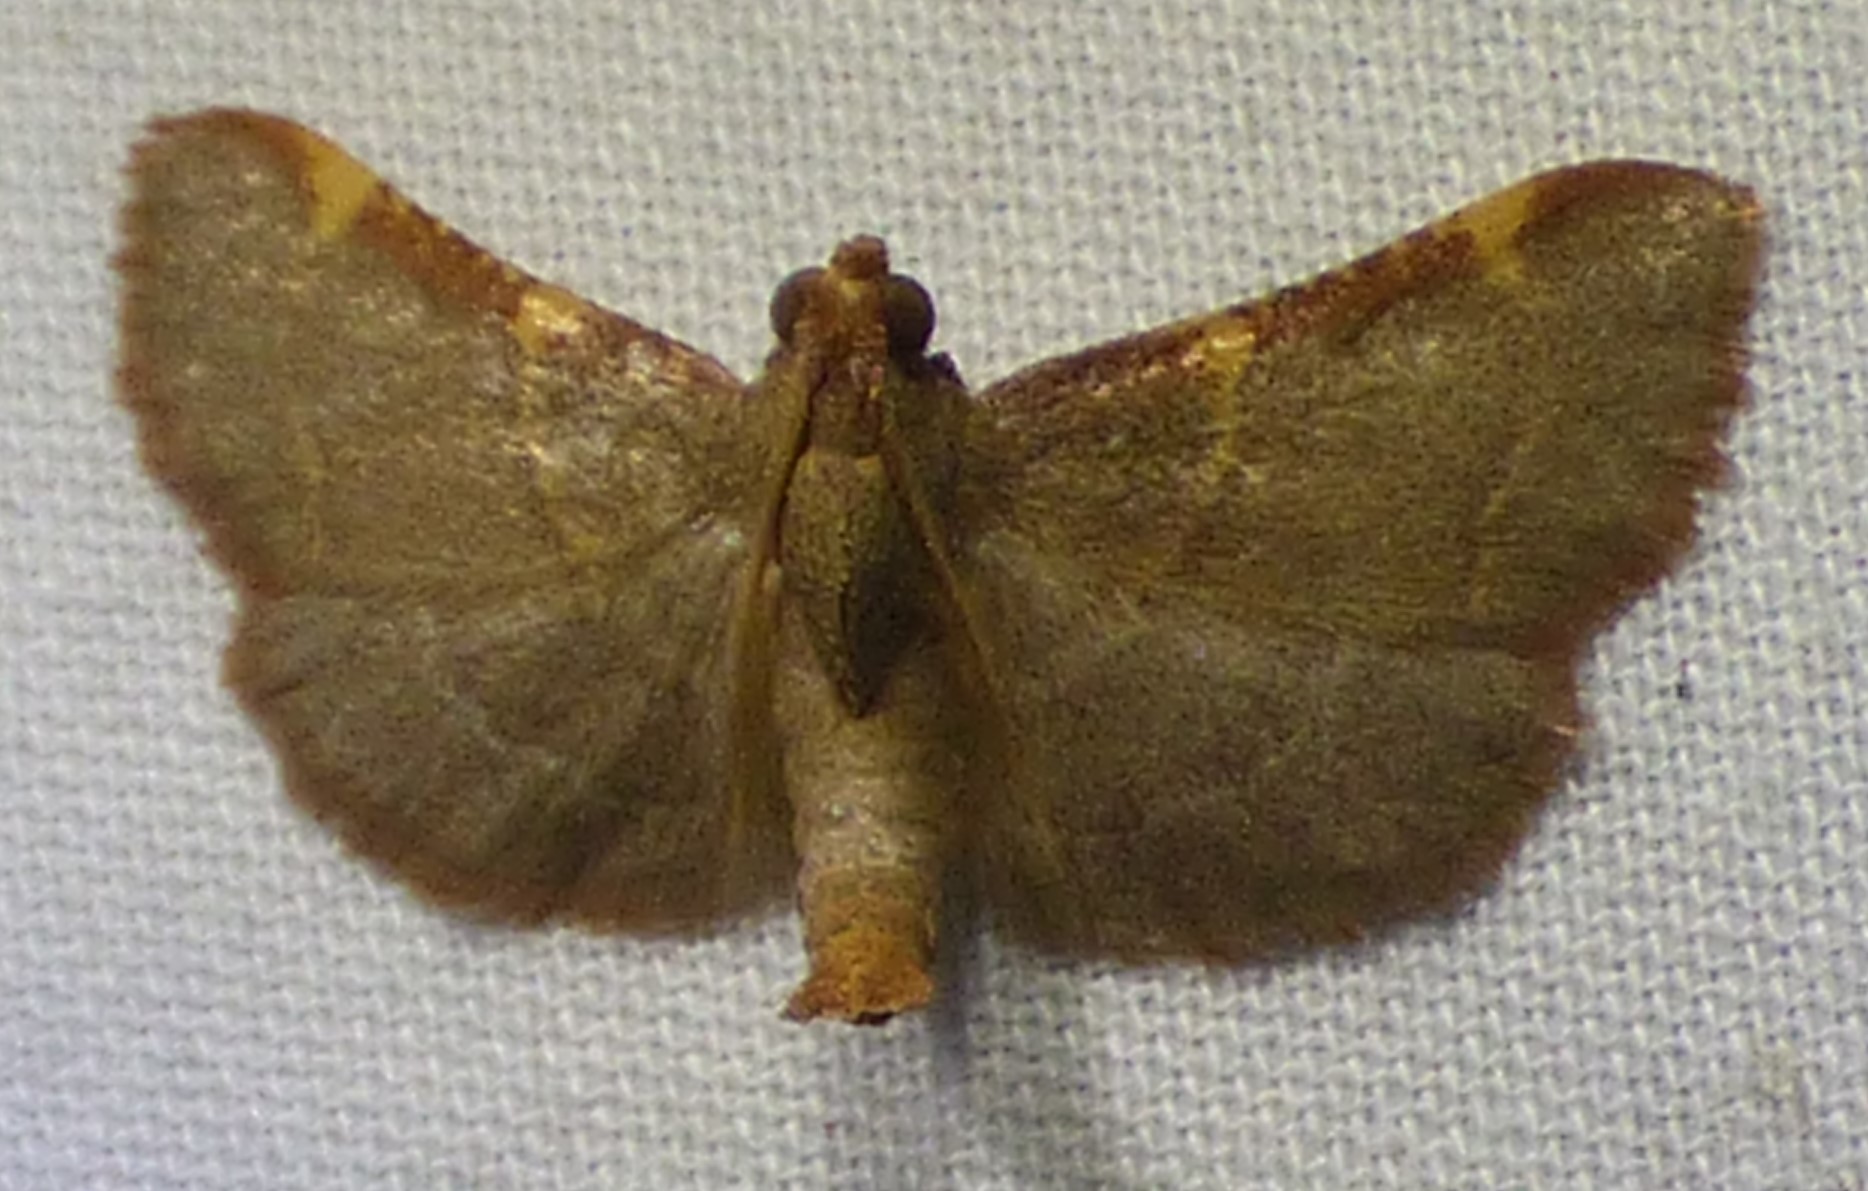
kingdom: Animalia
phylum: Arthropoda
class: Insecta
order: Lepidoptera
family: Pyralidae
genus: Hypsopygia
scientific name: Hypsopygia binodulalis
